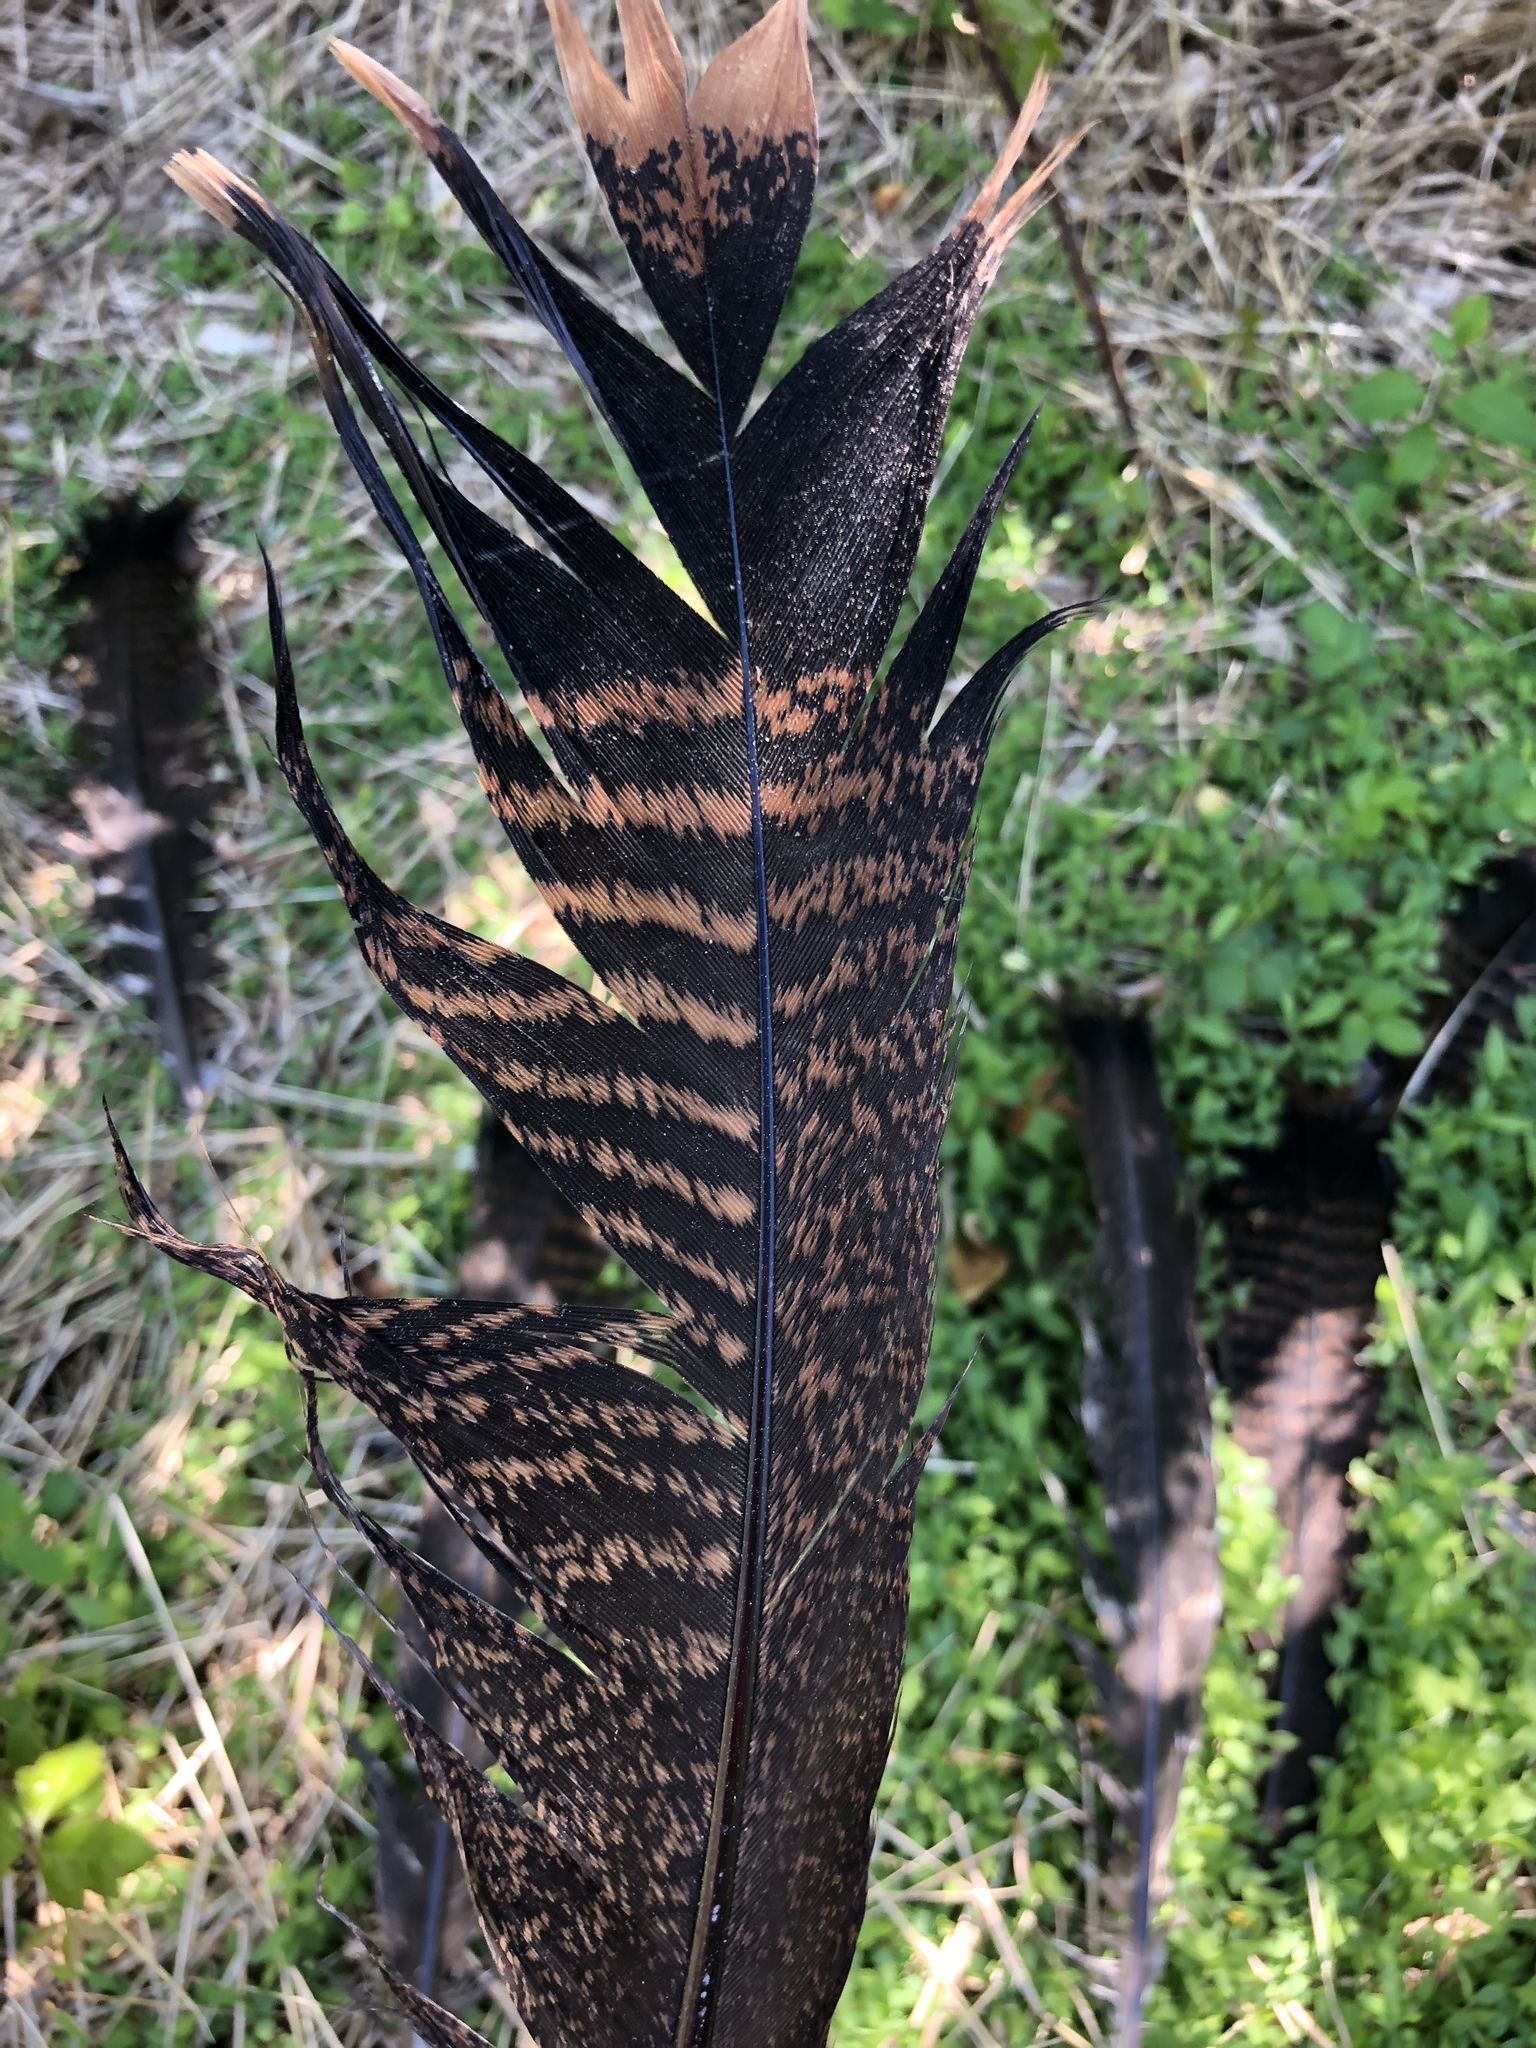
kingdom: Animalia
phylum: Chordata
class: Aves
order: Galliformes
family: Phasianidae
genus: Meleagris
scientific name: Meleagris gallopavo
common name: Wild turkey
